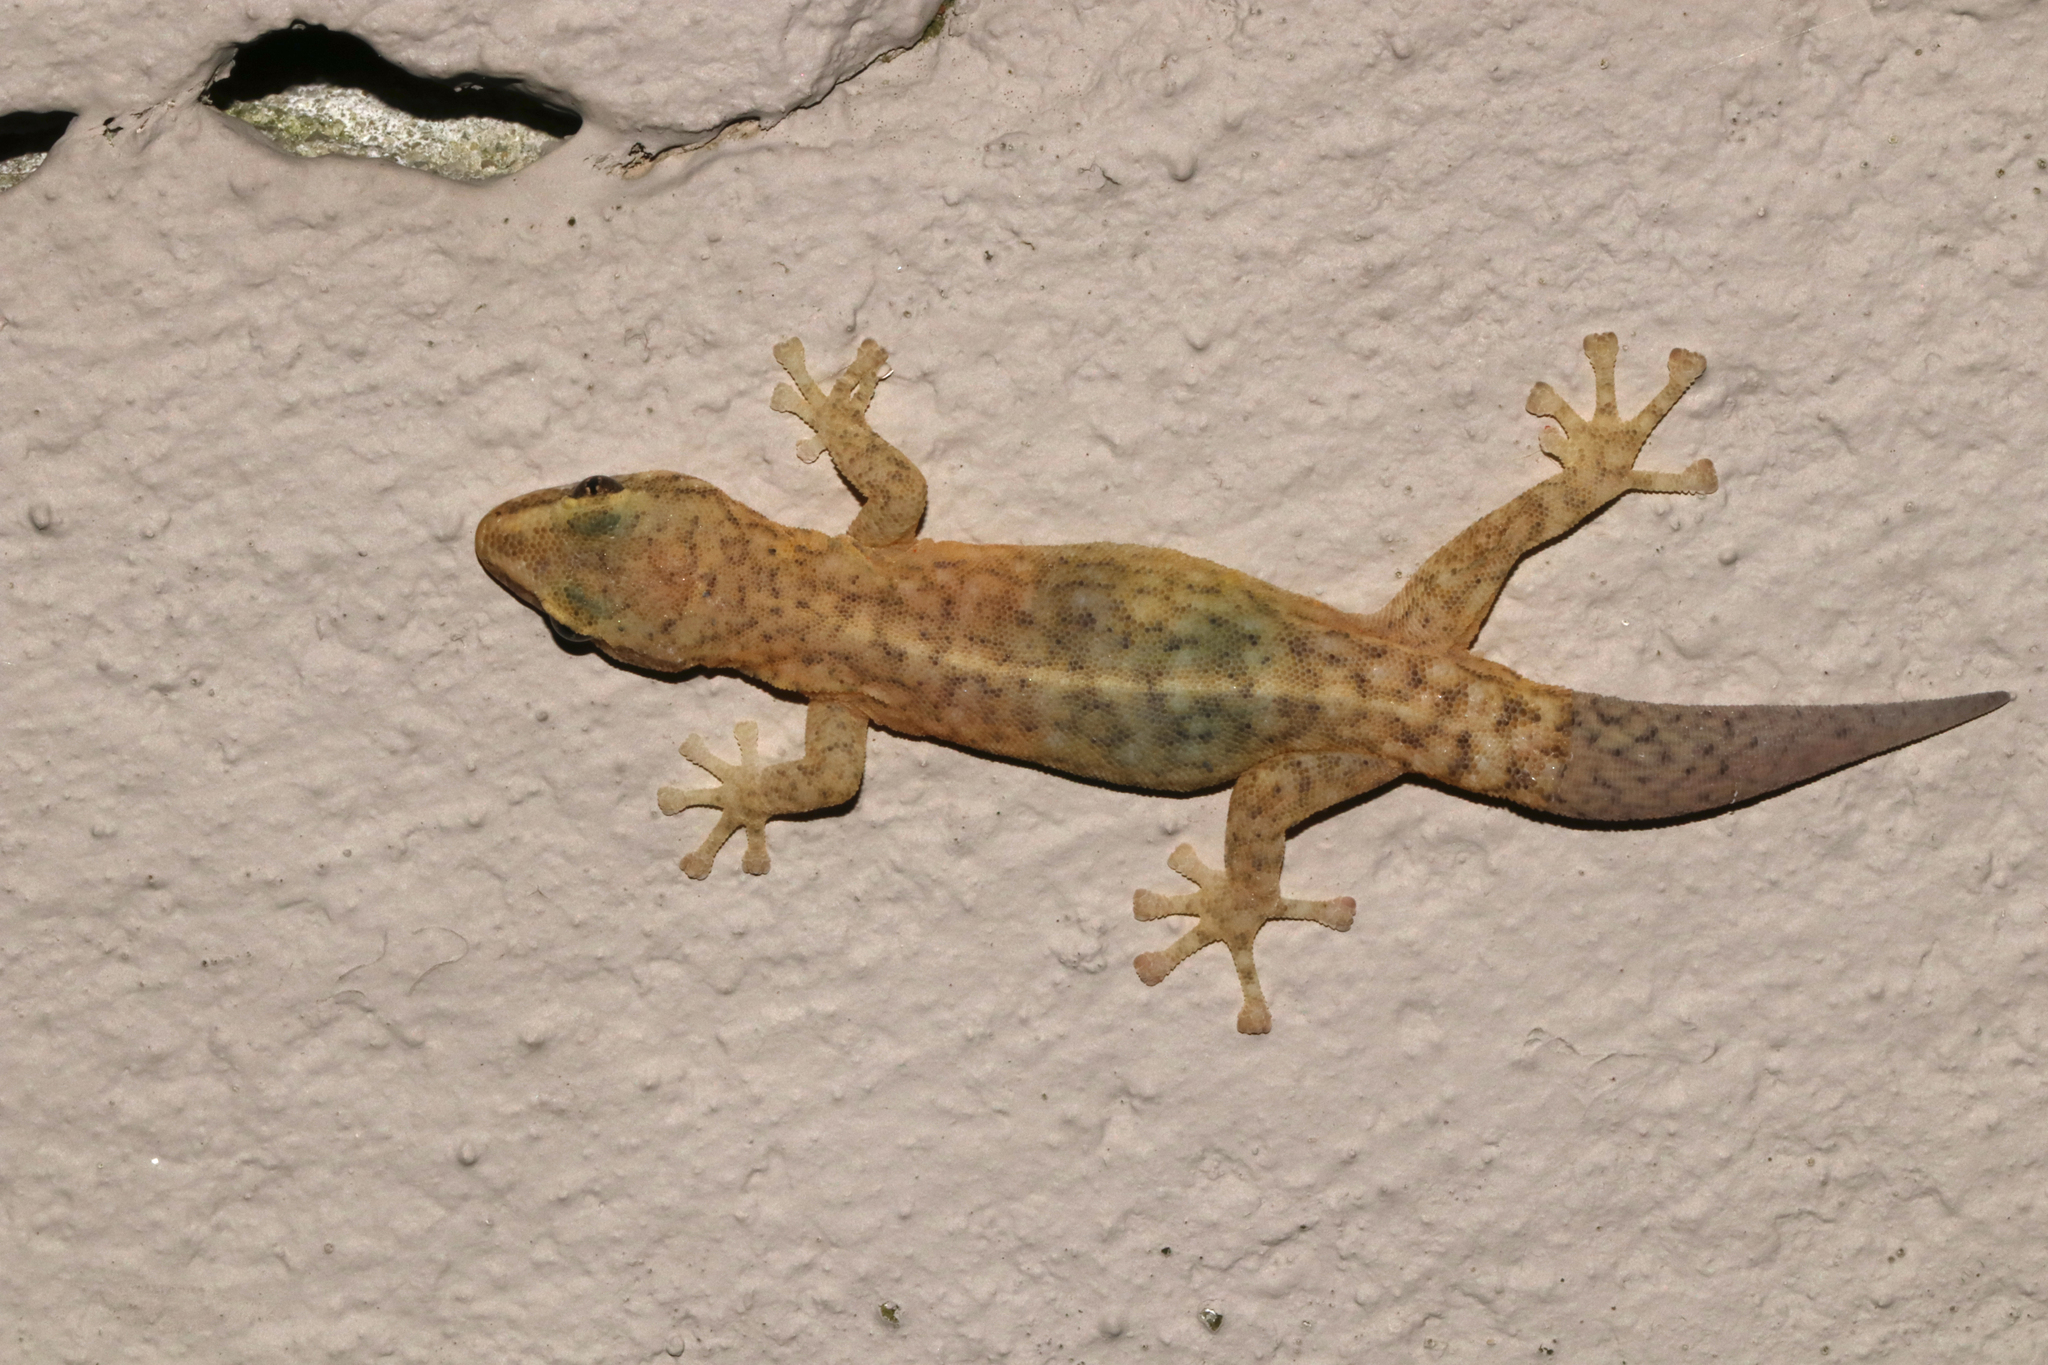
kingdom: Animalia
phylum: Chordata
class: Squamata
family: Gekkonidae
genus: Afrogecko
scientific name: Afrogecko porphyreus
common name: Marbled leaf-toed gecko
